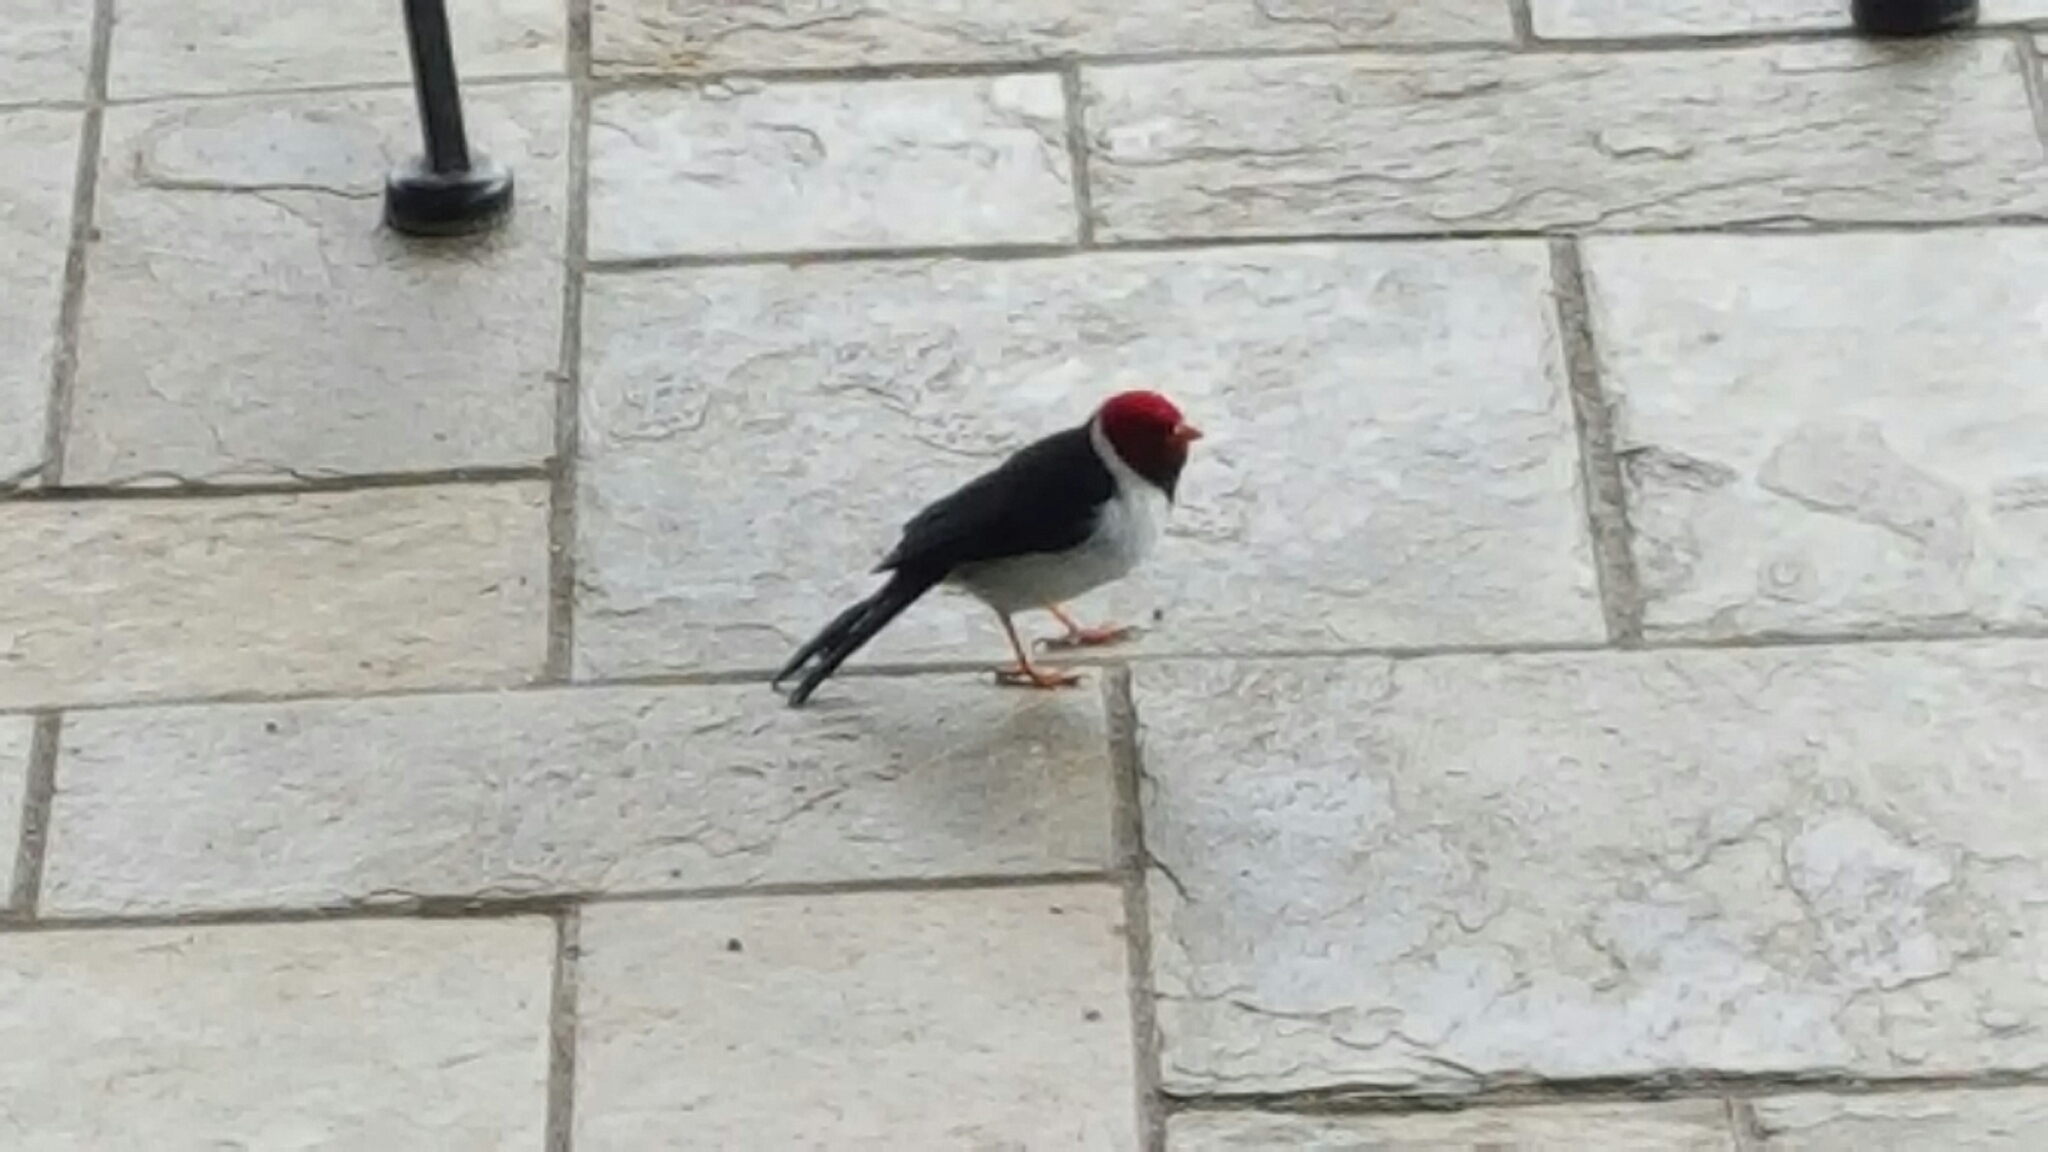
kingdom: Animalia
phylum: Chordata
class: Aves
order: Passeriformes
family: Thraupidae
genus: Paroaria
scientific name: Paroaria capitata
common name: Yellow-billed cardinal
